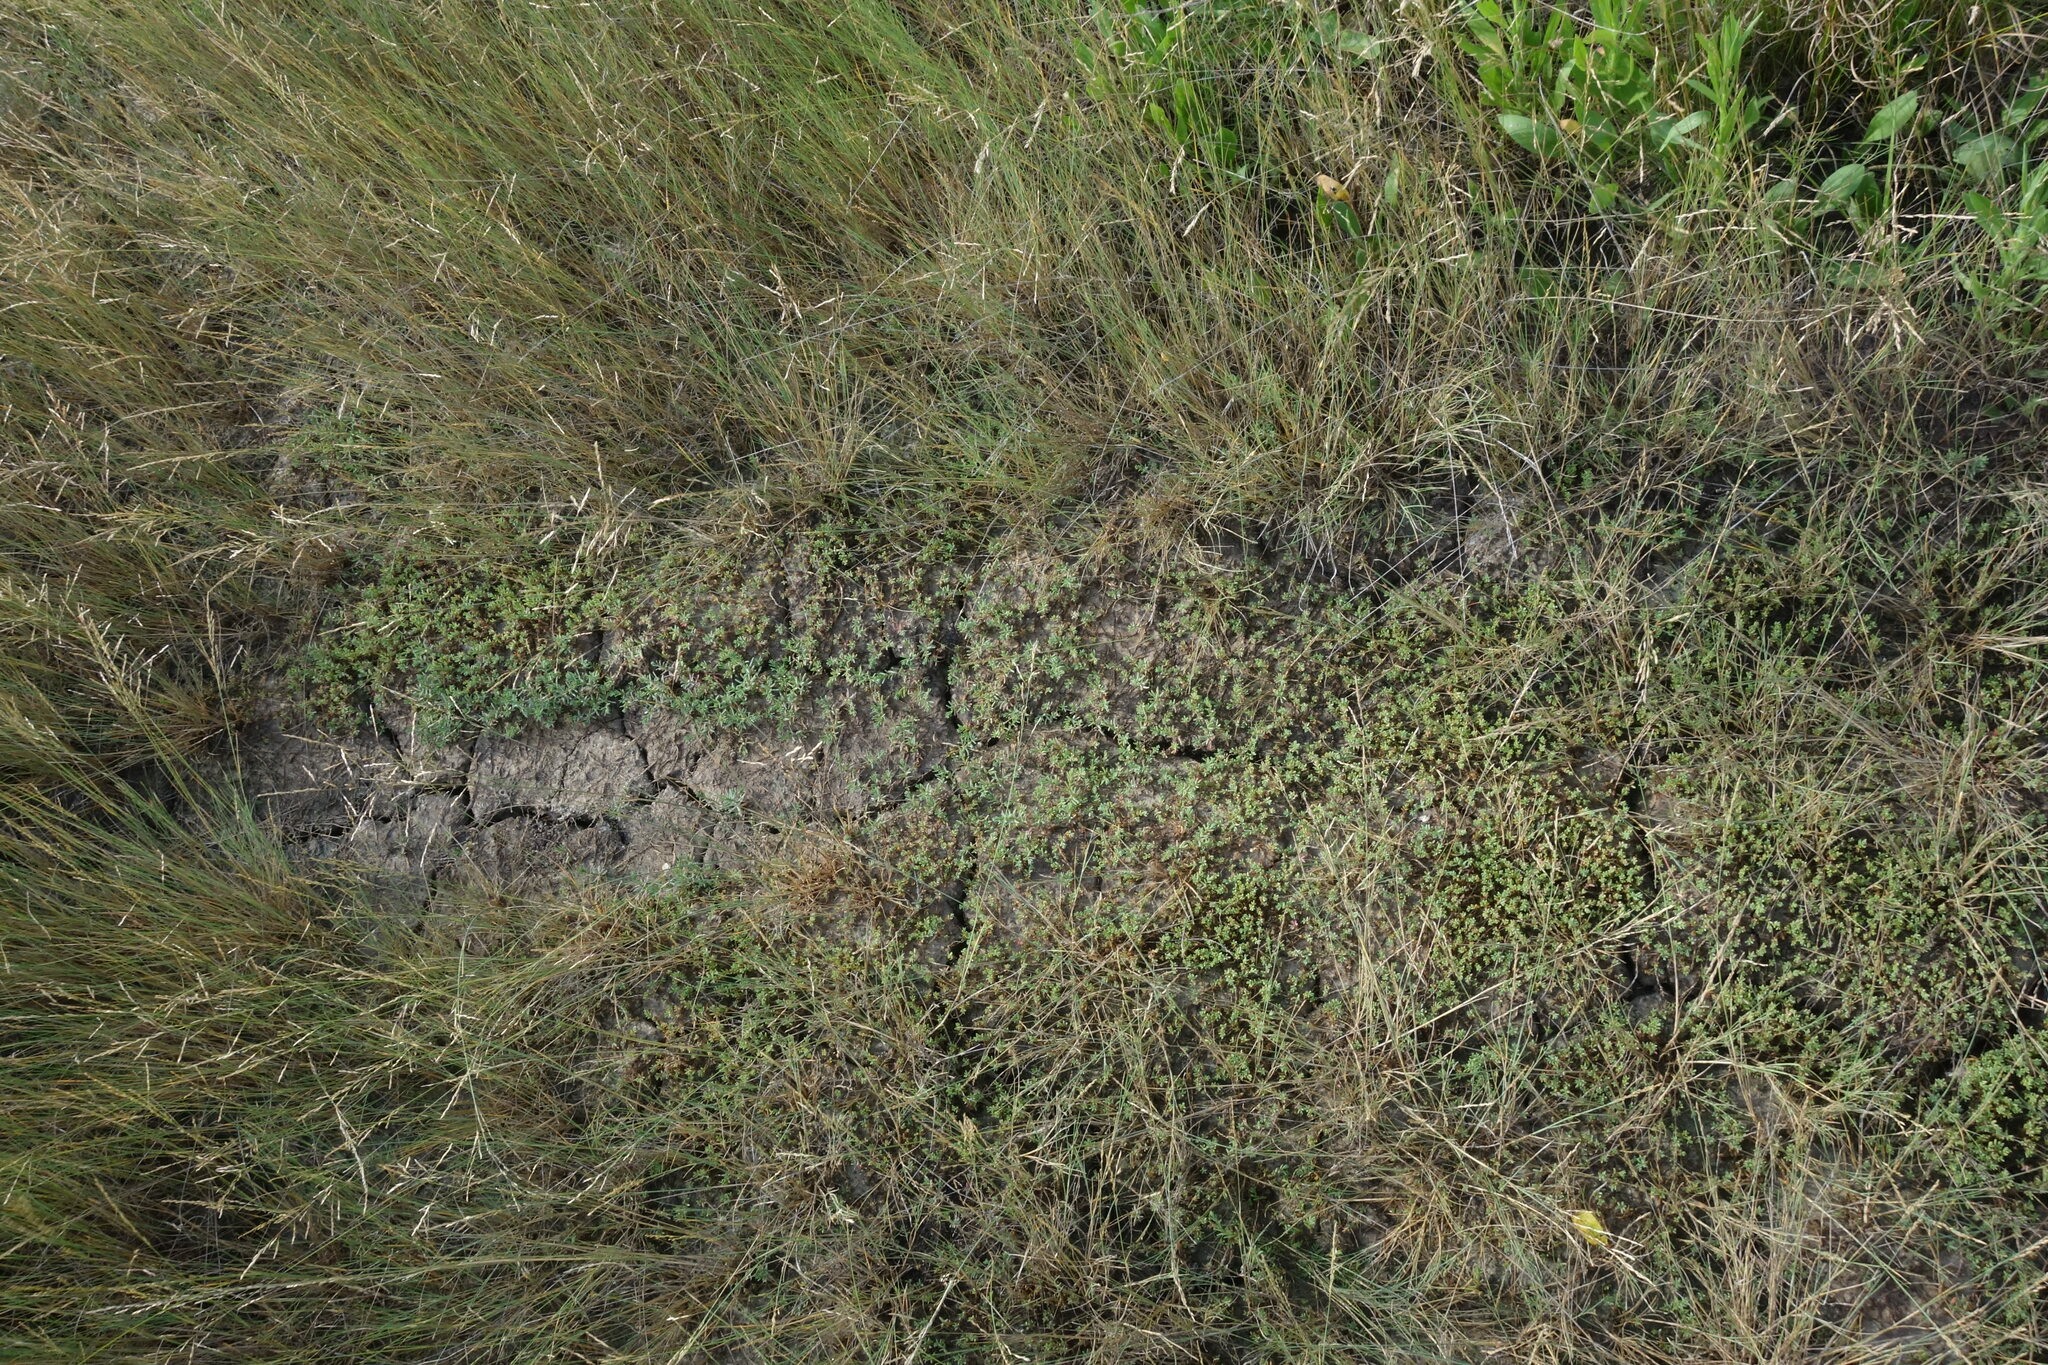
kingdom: Plantae
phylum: Tracheophyta
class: Magnoliopsida
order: Caryophyllales
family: Amaranthaceae
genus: Suaeda
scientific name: Suaeda prostrata
